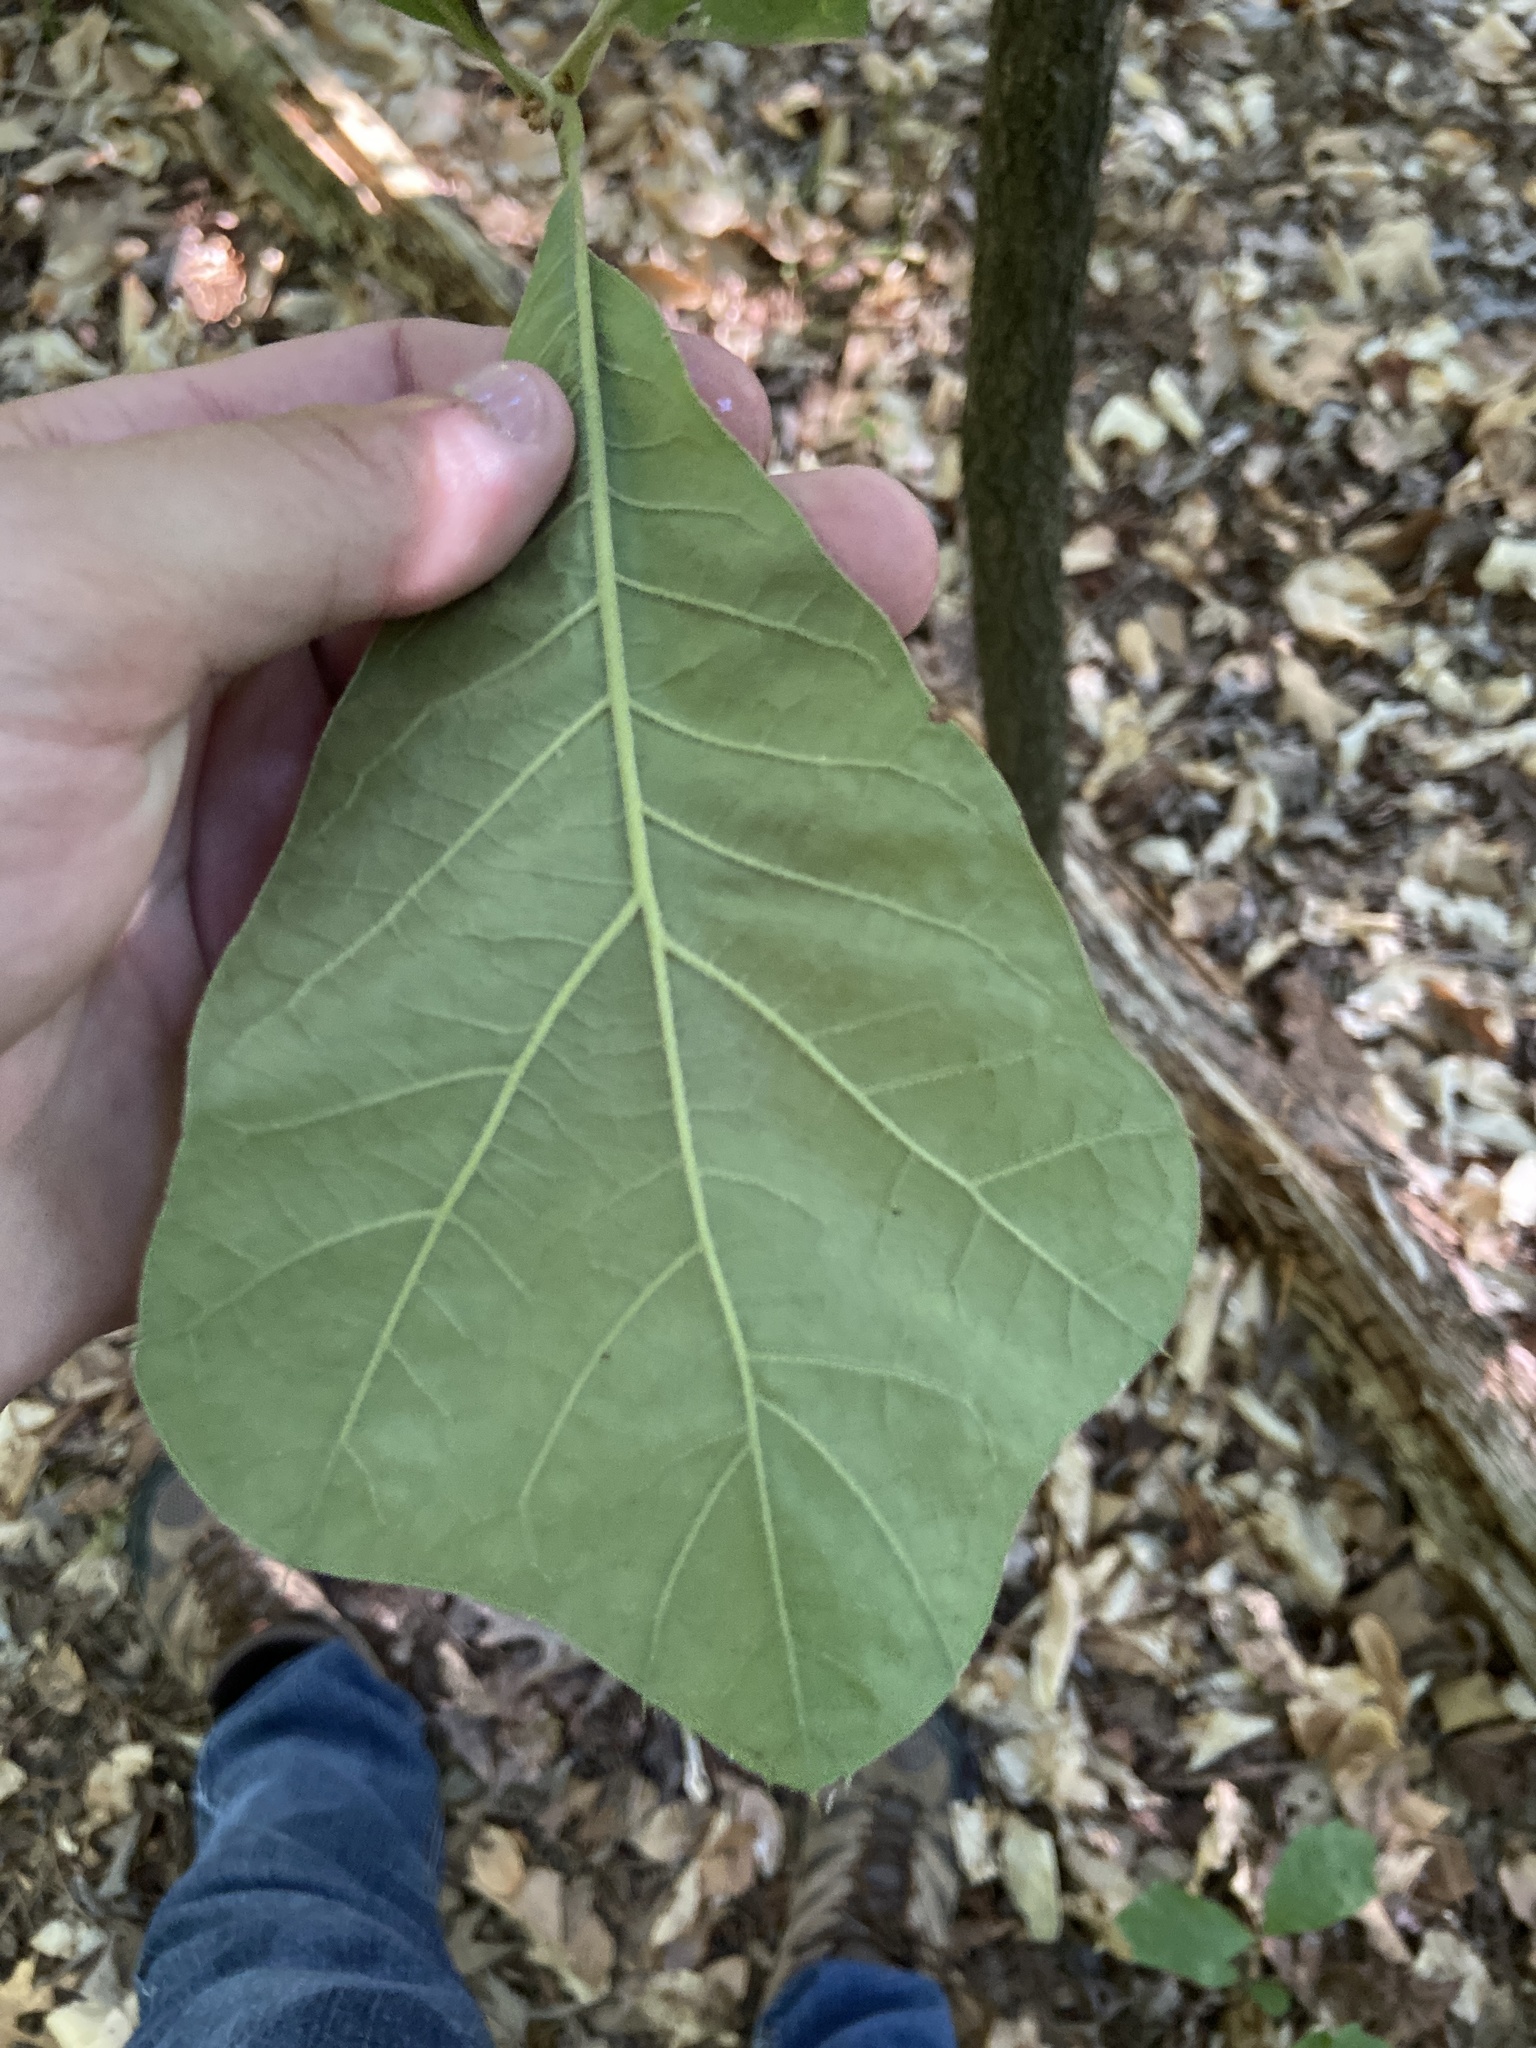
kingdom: Plantae
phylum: Tracheophyta
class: Magnoliopsida
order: Fagales
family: Fagaceae
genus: Quercus
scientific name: Quercus marilandica
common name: Blackjack oak
